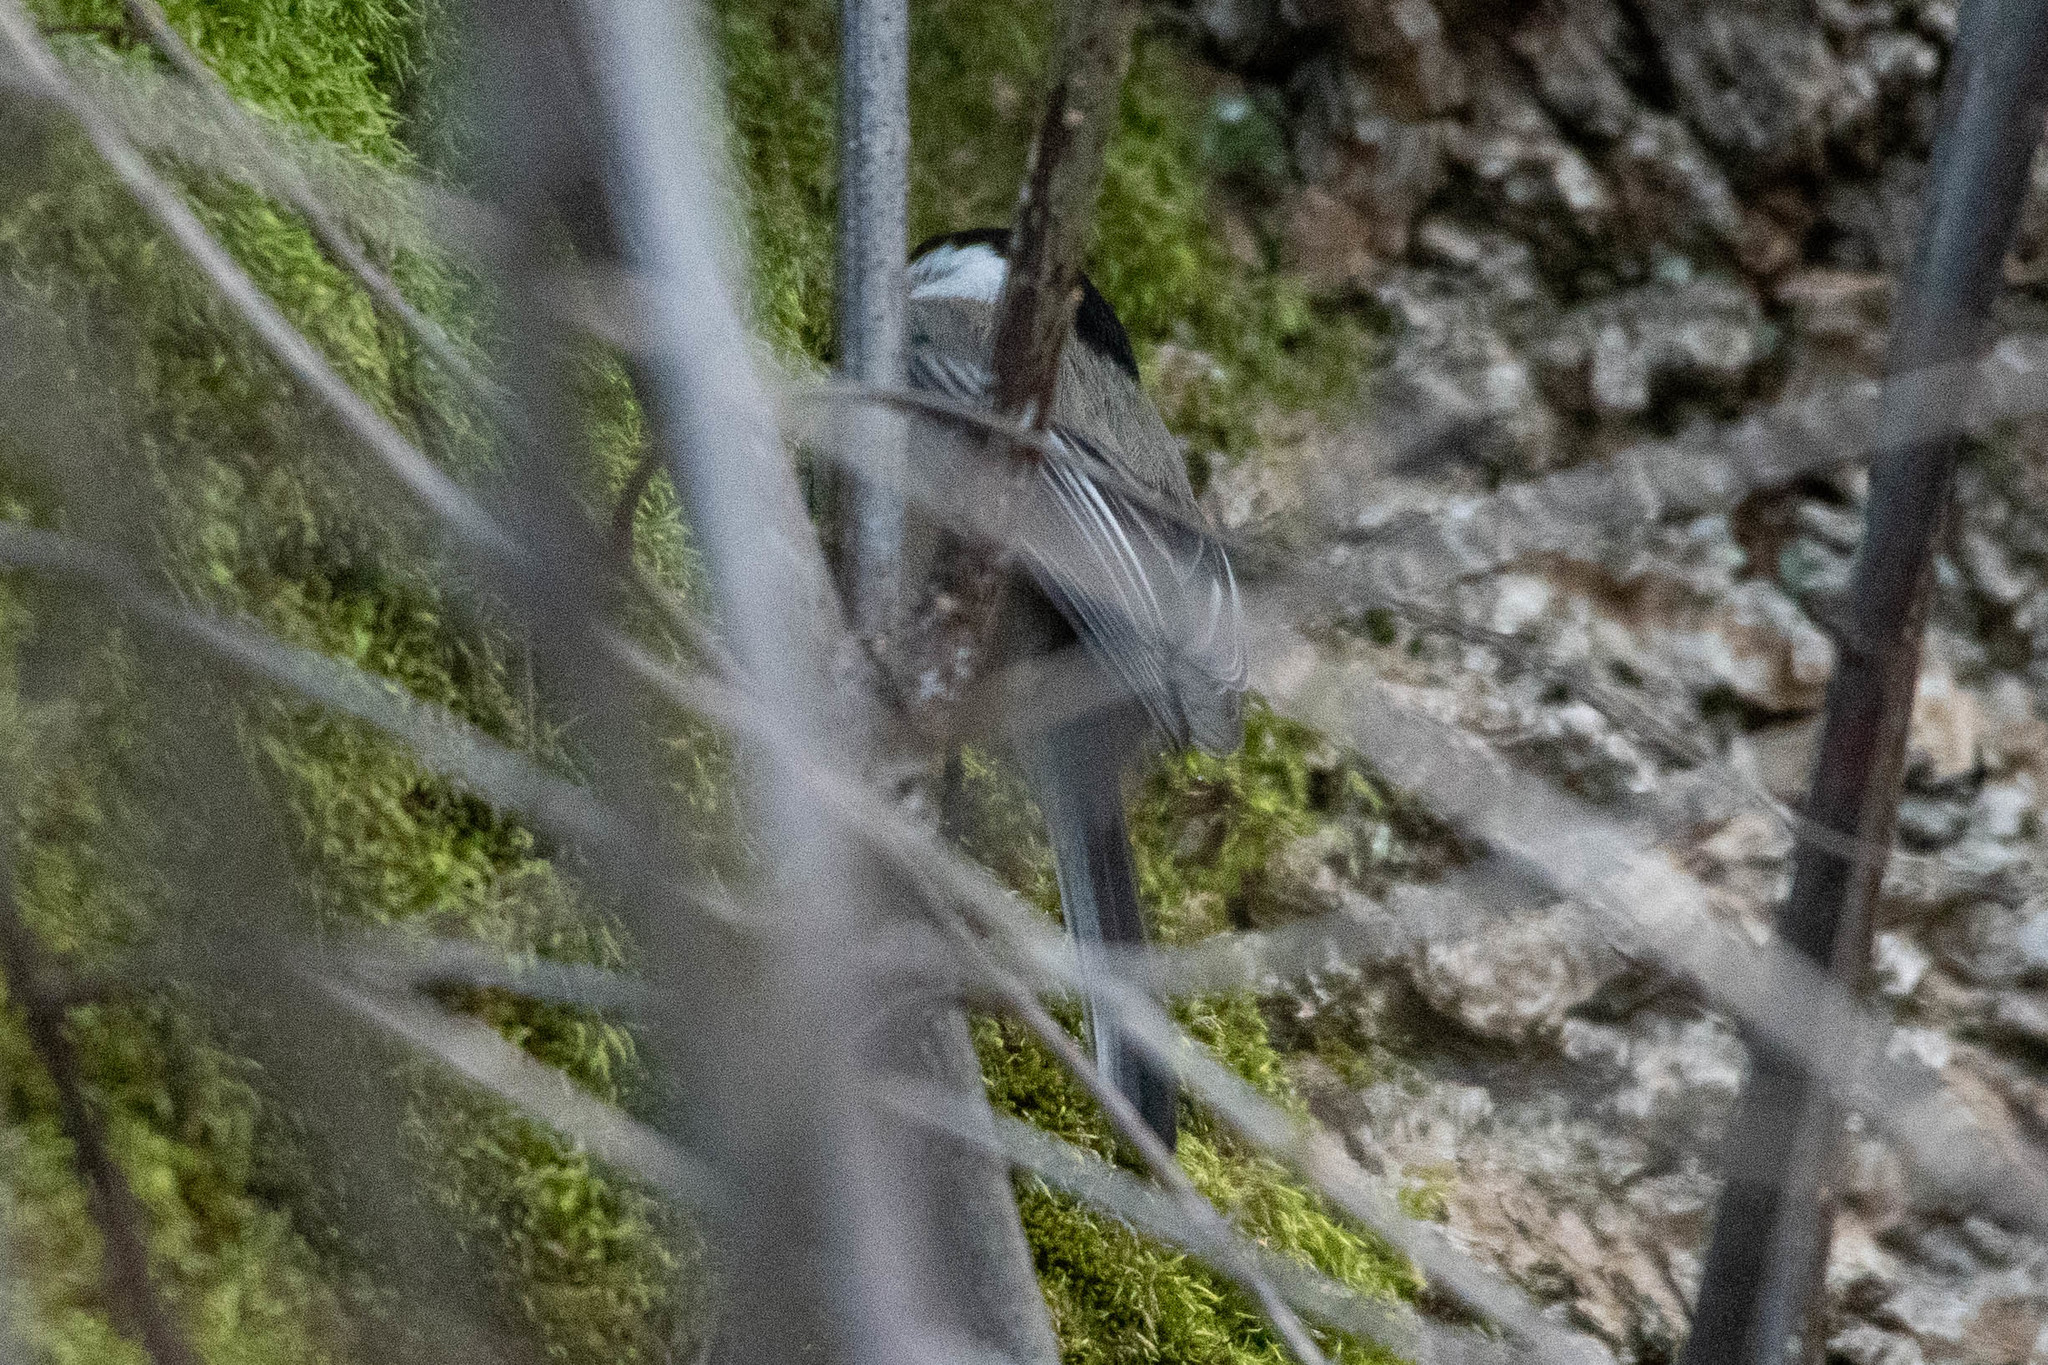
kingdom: Animalia
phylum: Chordata
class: Aves
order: Passeriformes
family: Paridae
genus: Poecile
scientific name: Poecile atricapillus
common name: Black-capped chickadee
